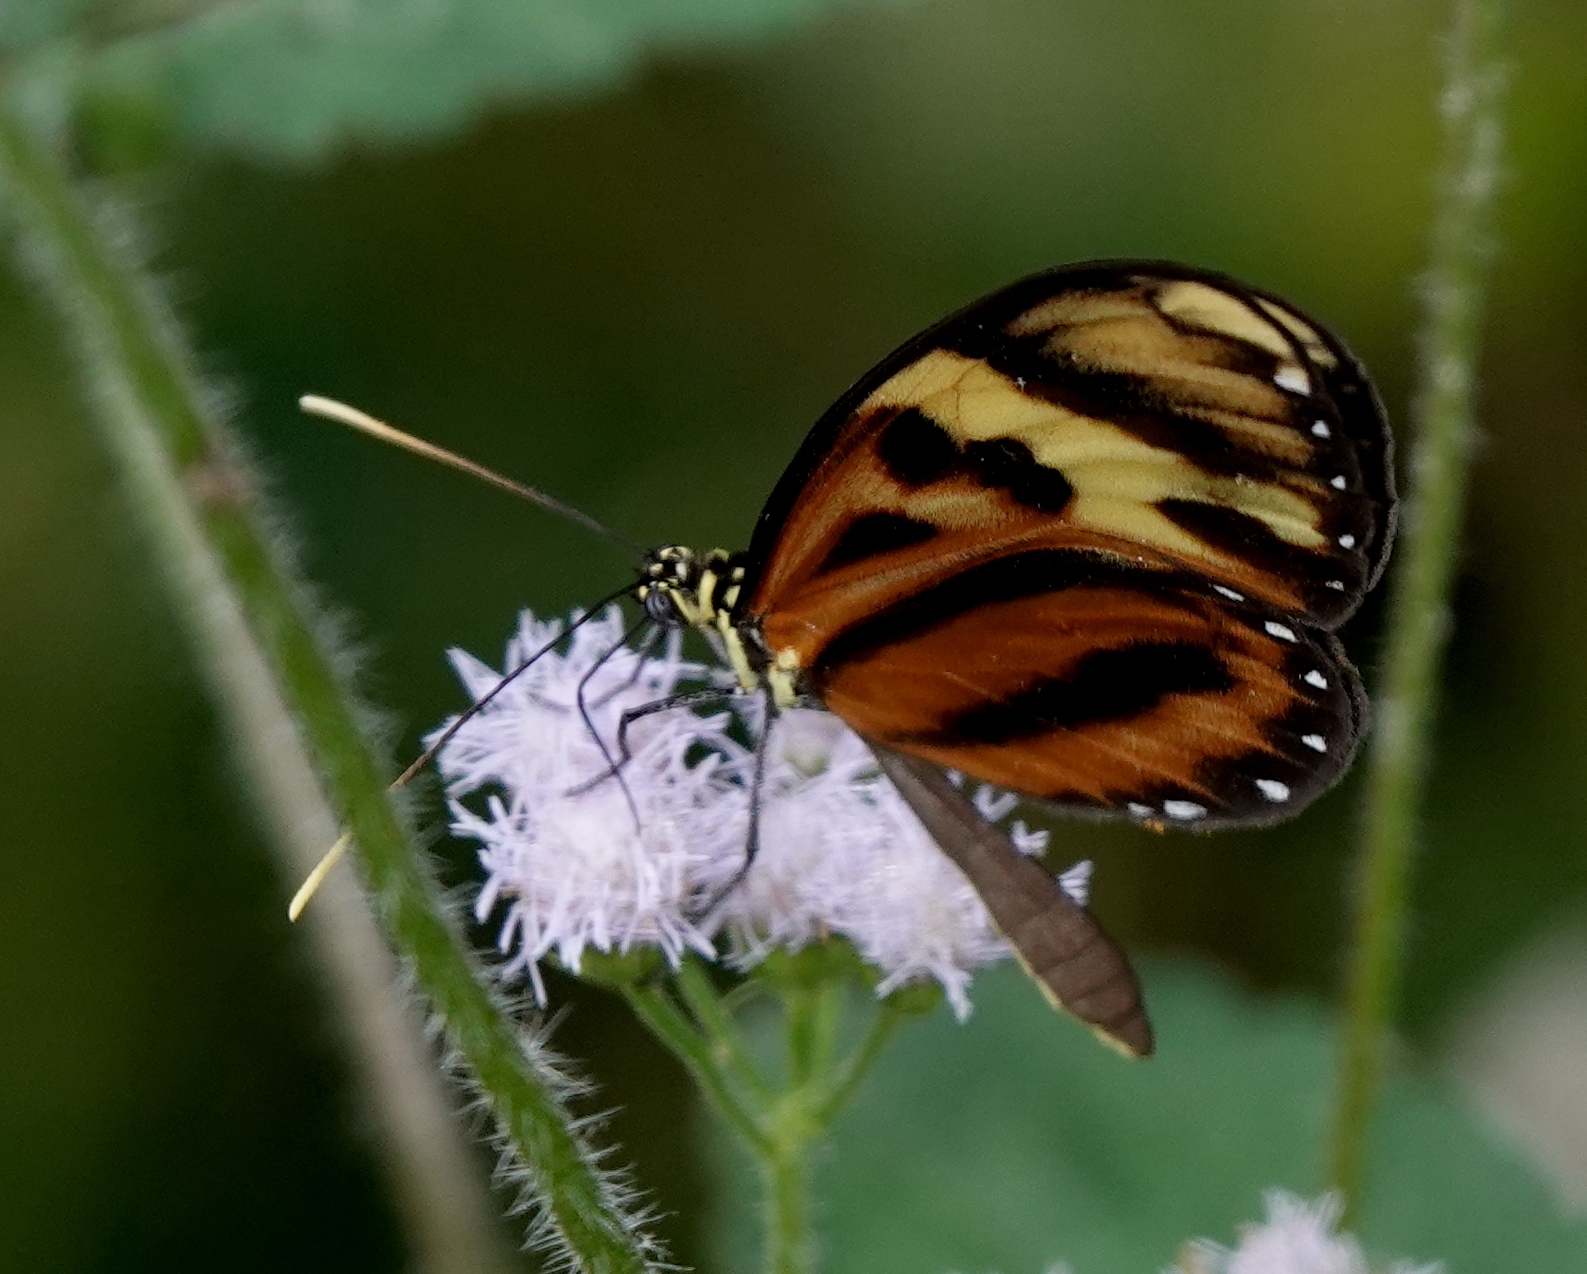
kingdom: Animalia
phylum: Arthropoda
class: Insecta
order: Lepidoptera
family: Nymphalidae
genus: Ceratinia
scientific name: Ceratinia tutia
